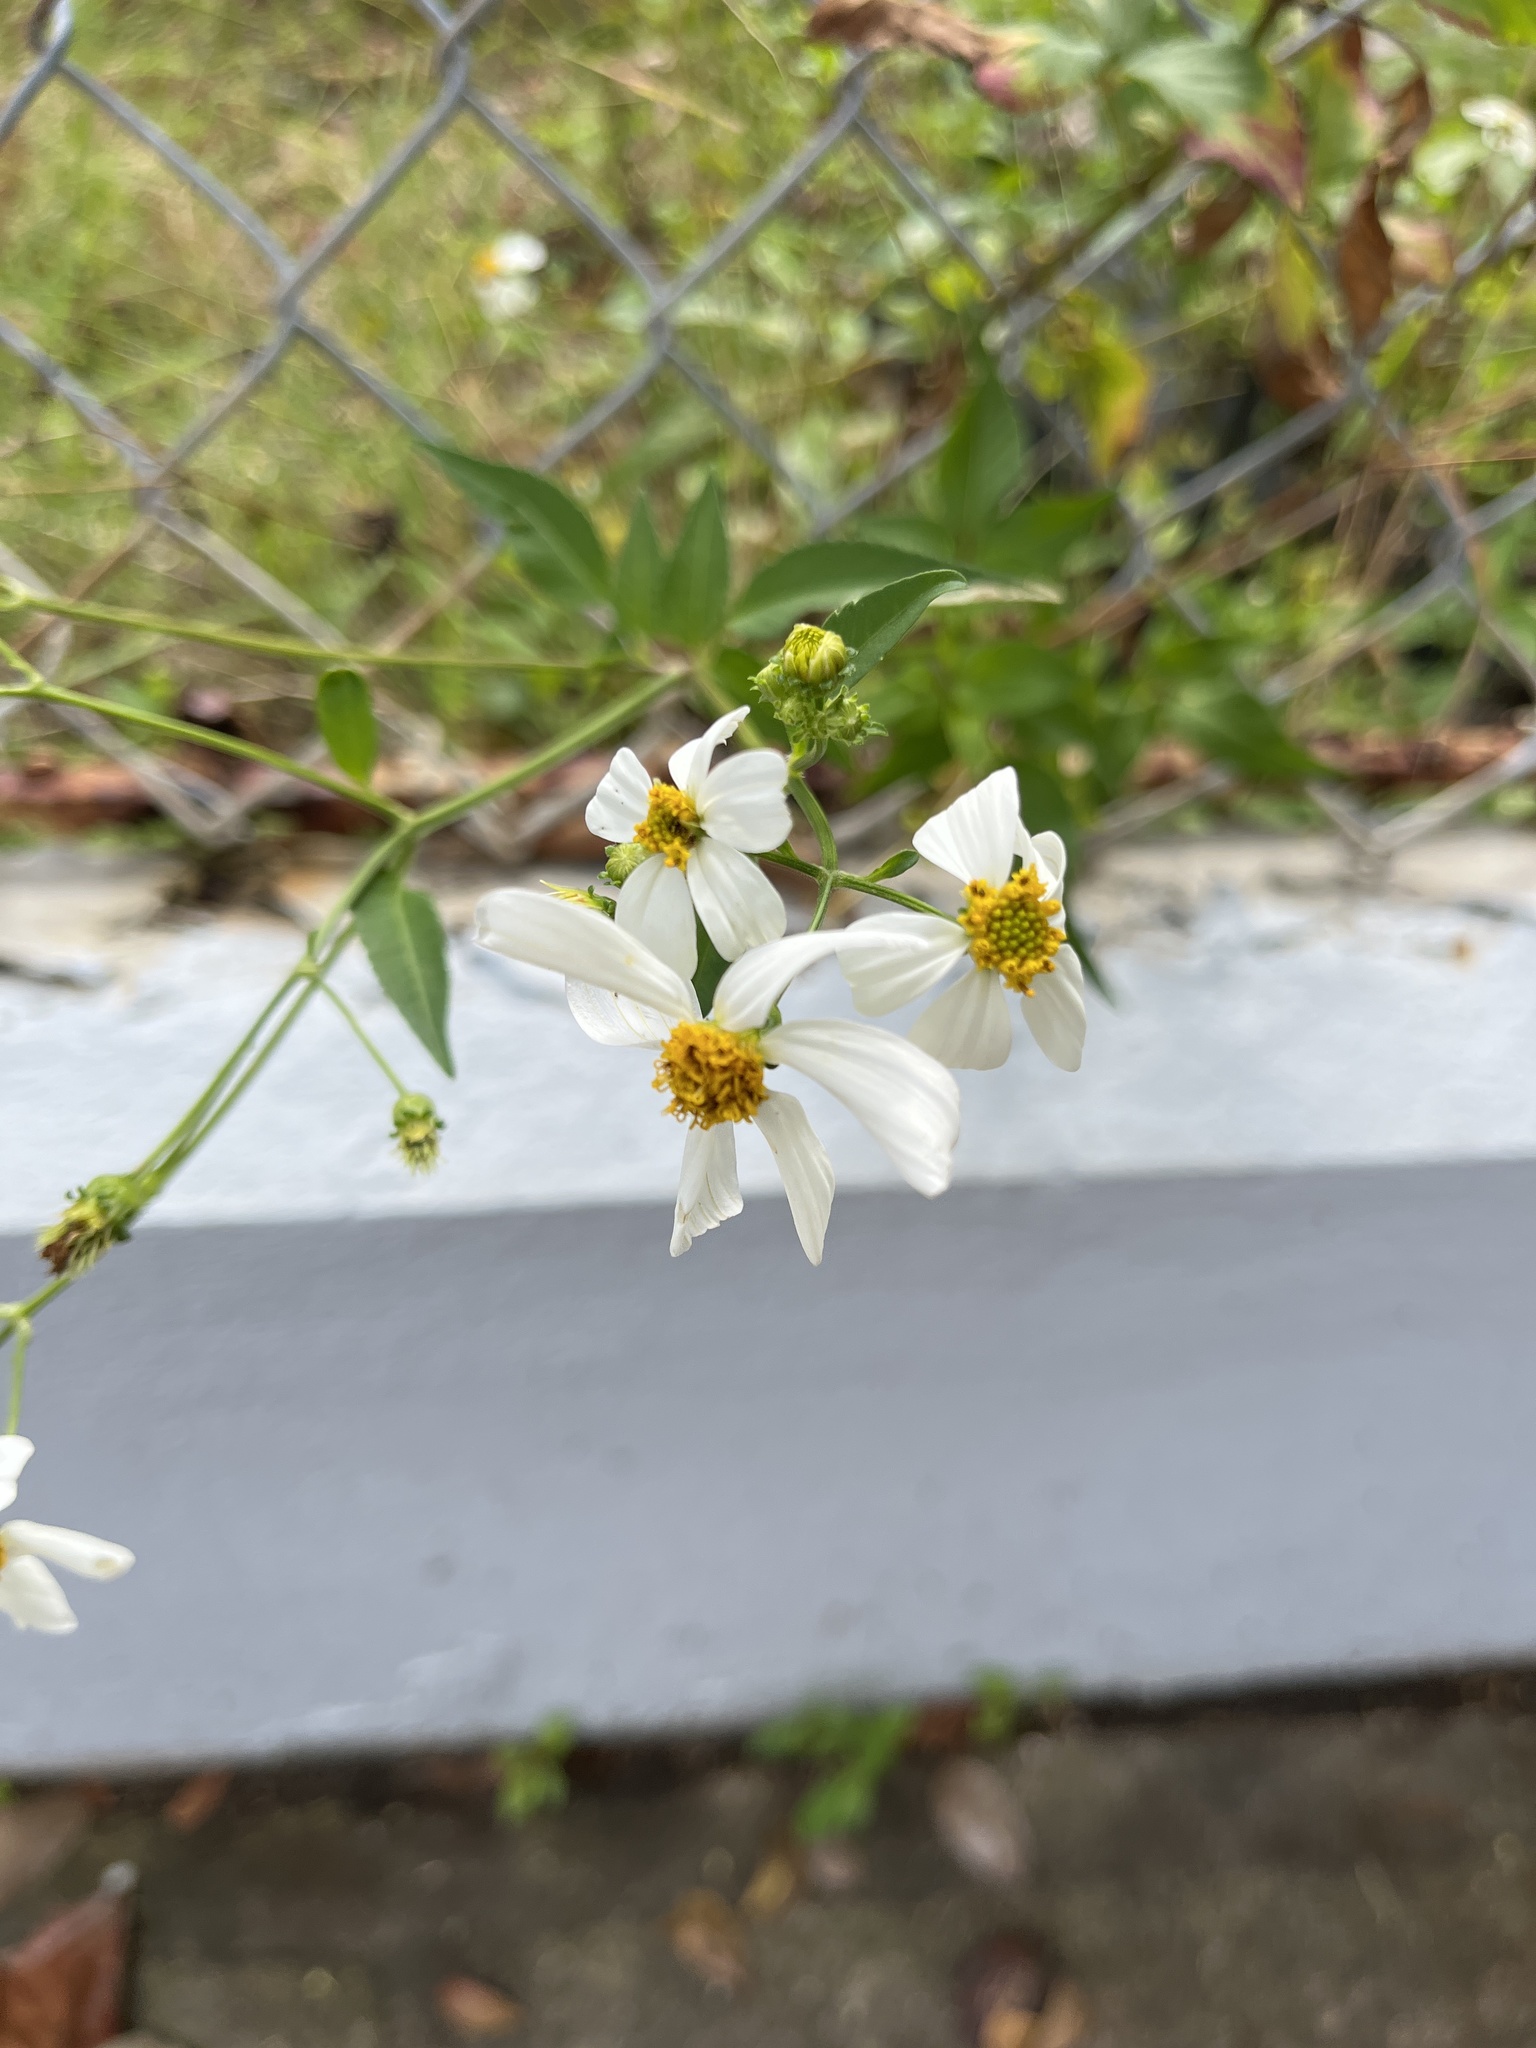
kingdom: Plantae
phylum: Tracheophyta
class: Magnoliopsida
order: Asterales
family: Asteraceae
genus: Bidens
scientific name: Bidens alba
